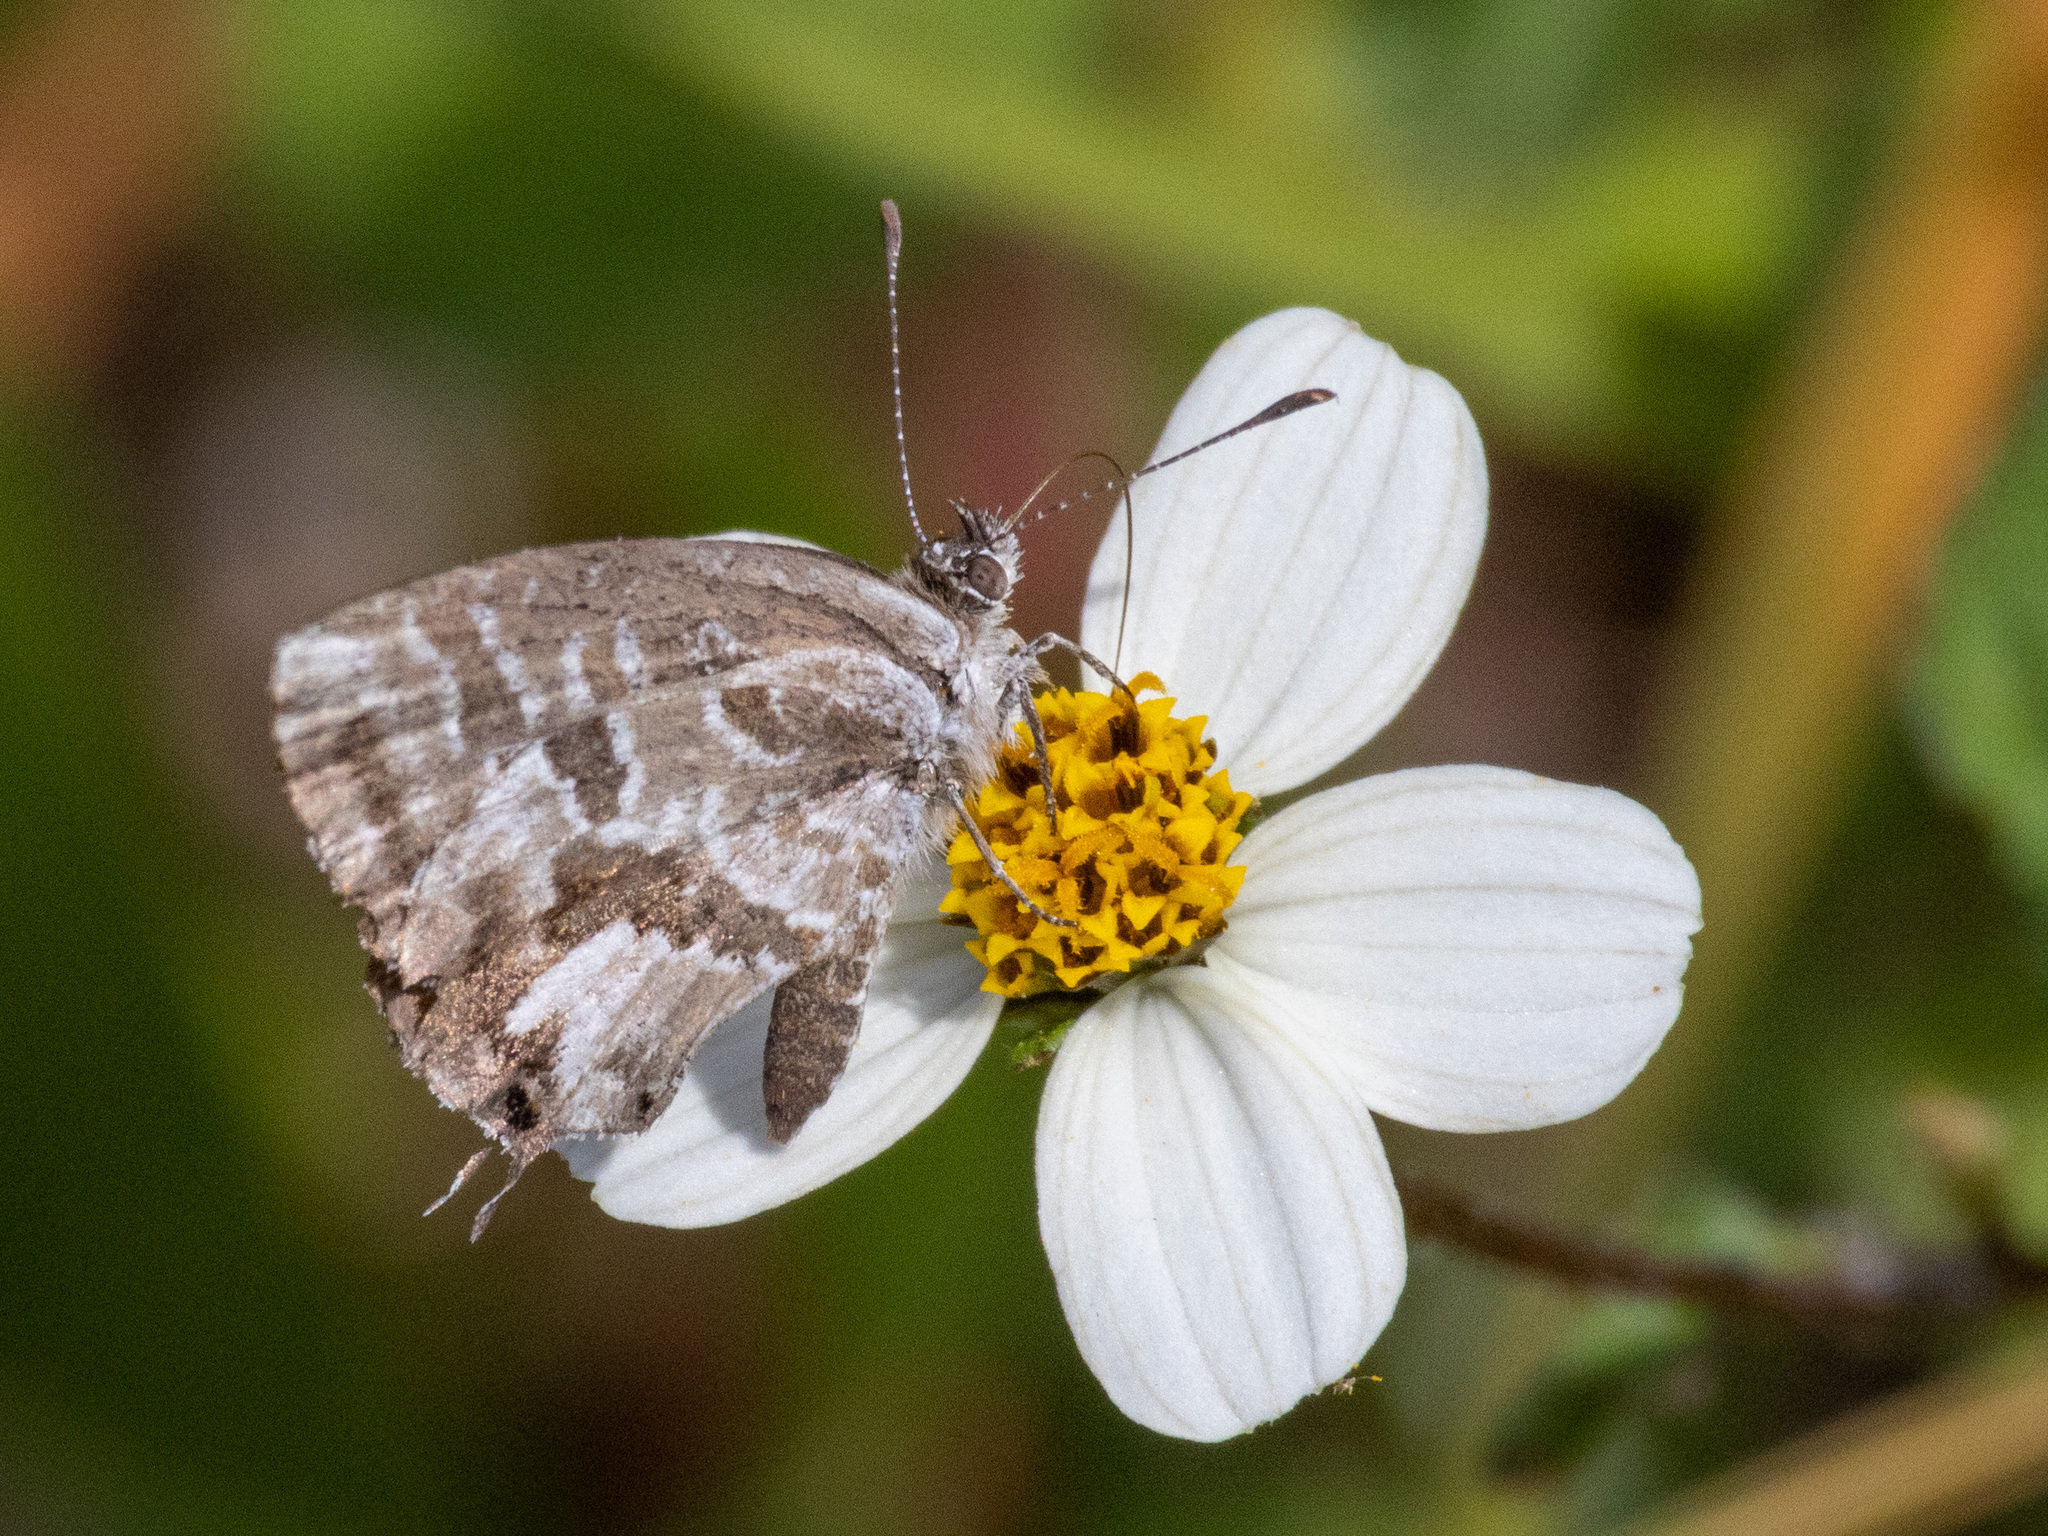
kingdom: Animalia
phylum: Arthropoda
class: Insecta
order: Lepidoptera
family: Lycaenidae
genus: Cacyreus
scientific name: Cacyreus marshalli
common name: Geranium bronze
